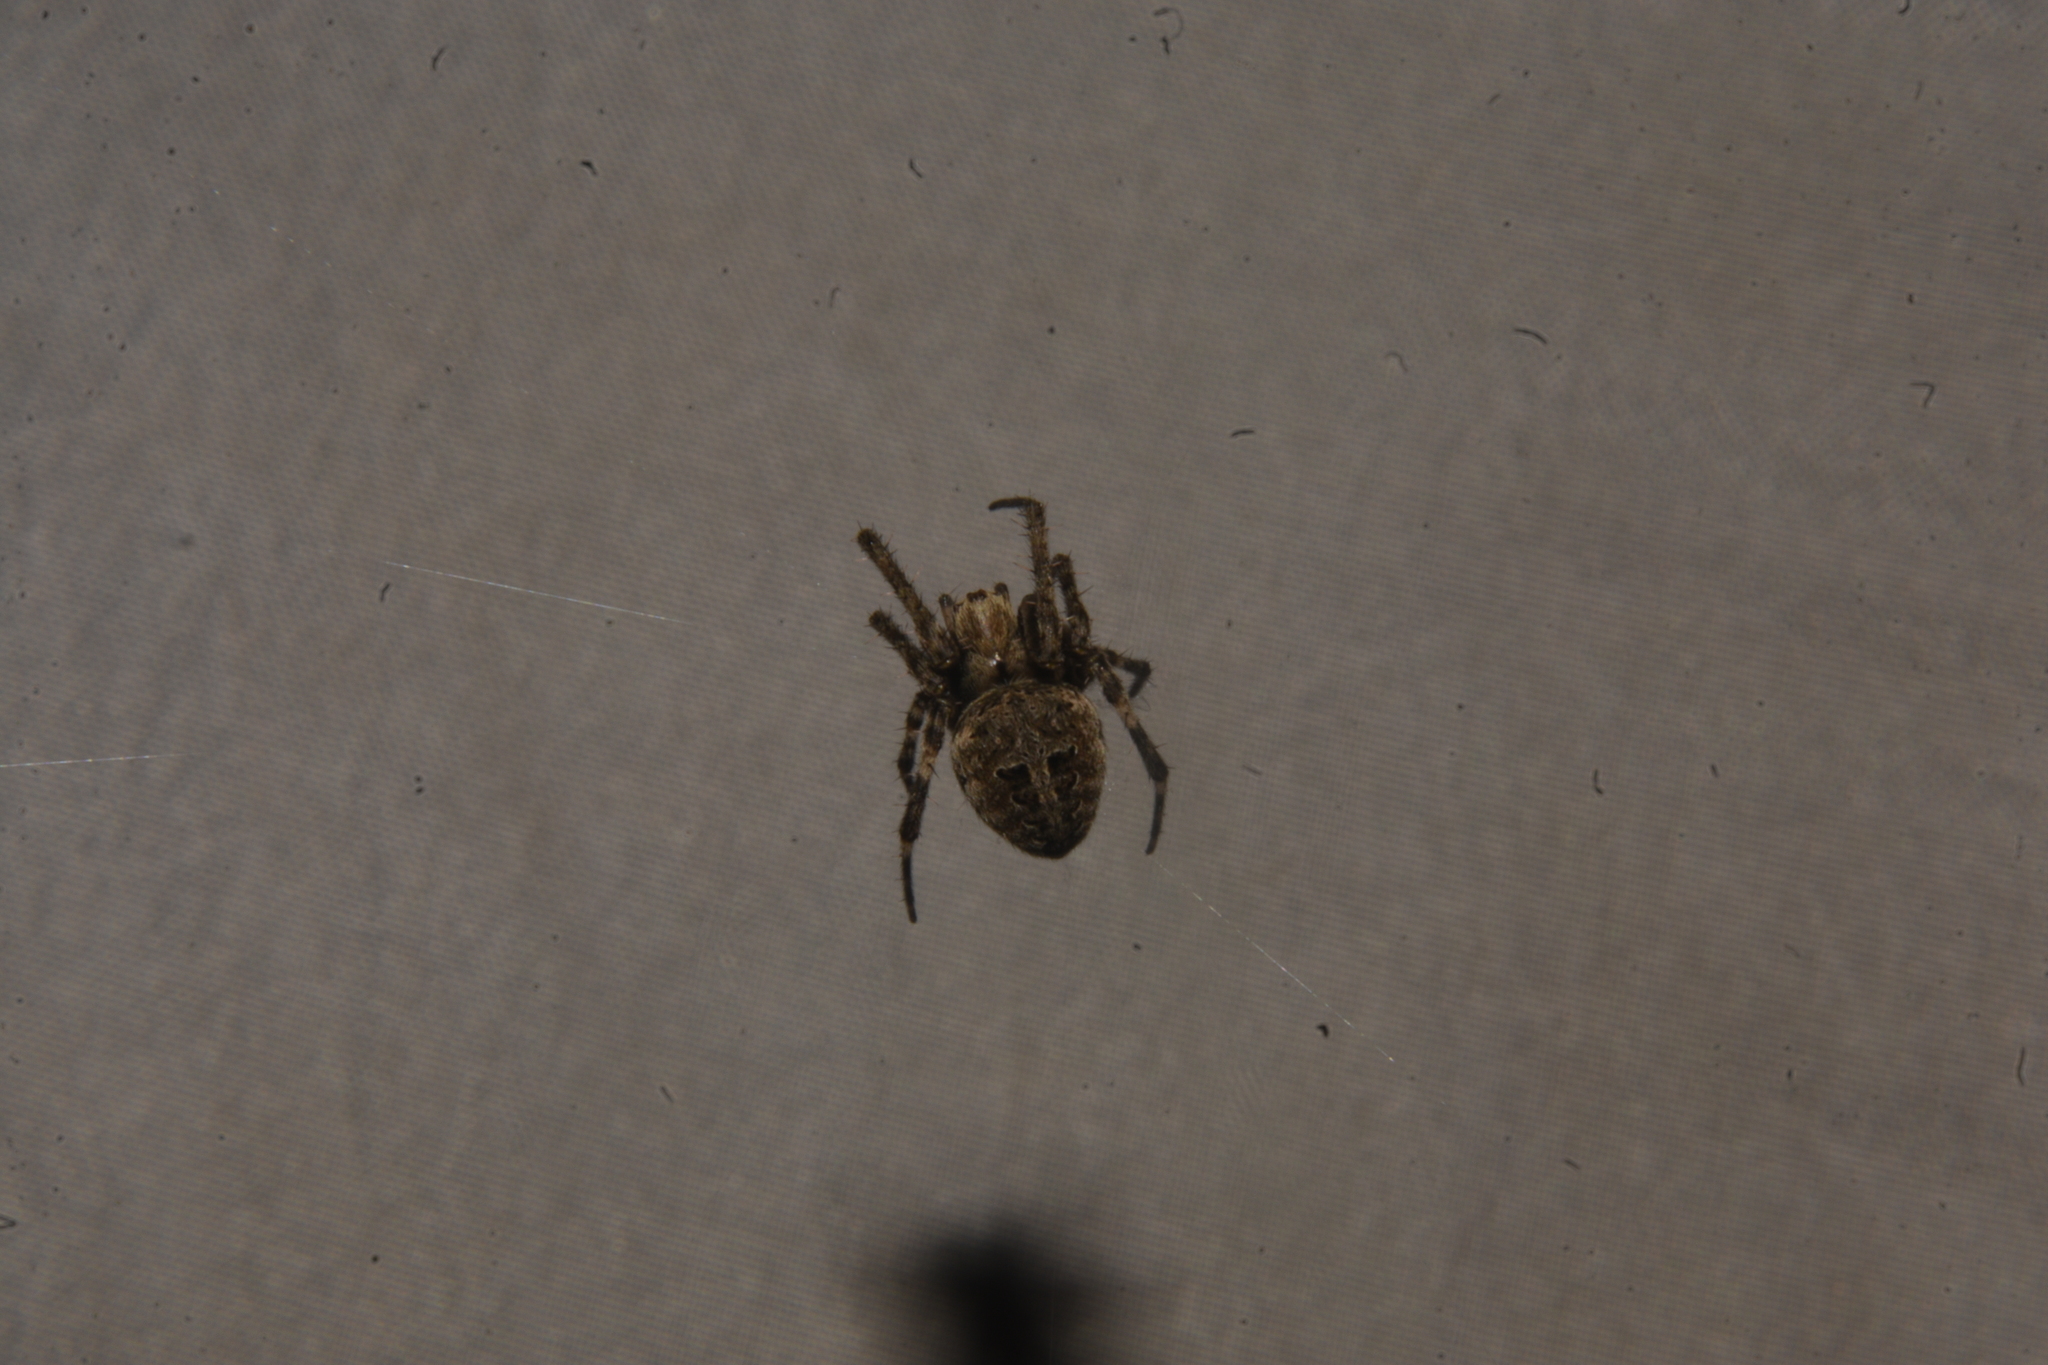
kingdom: Animalia
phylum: Arthropoda
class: Arachnida
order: Araneae
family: Araneidae
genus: Neoscona
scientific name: Neoscona nautica
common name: Orb weavers
